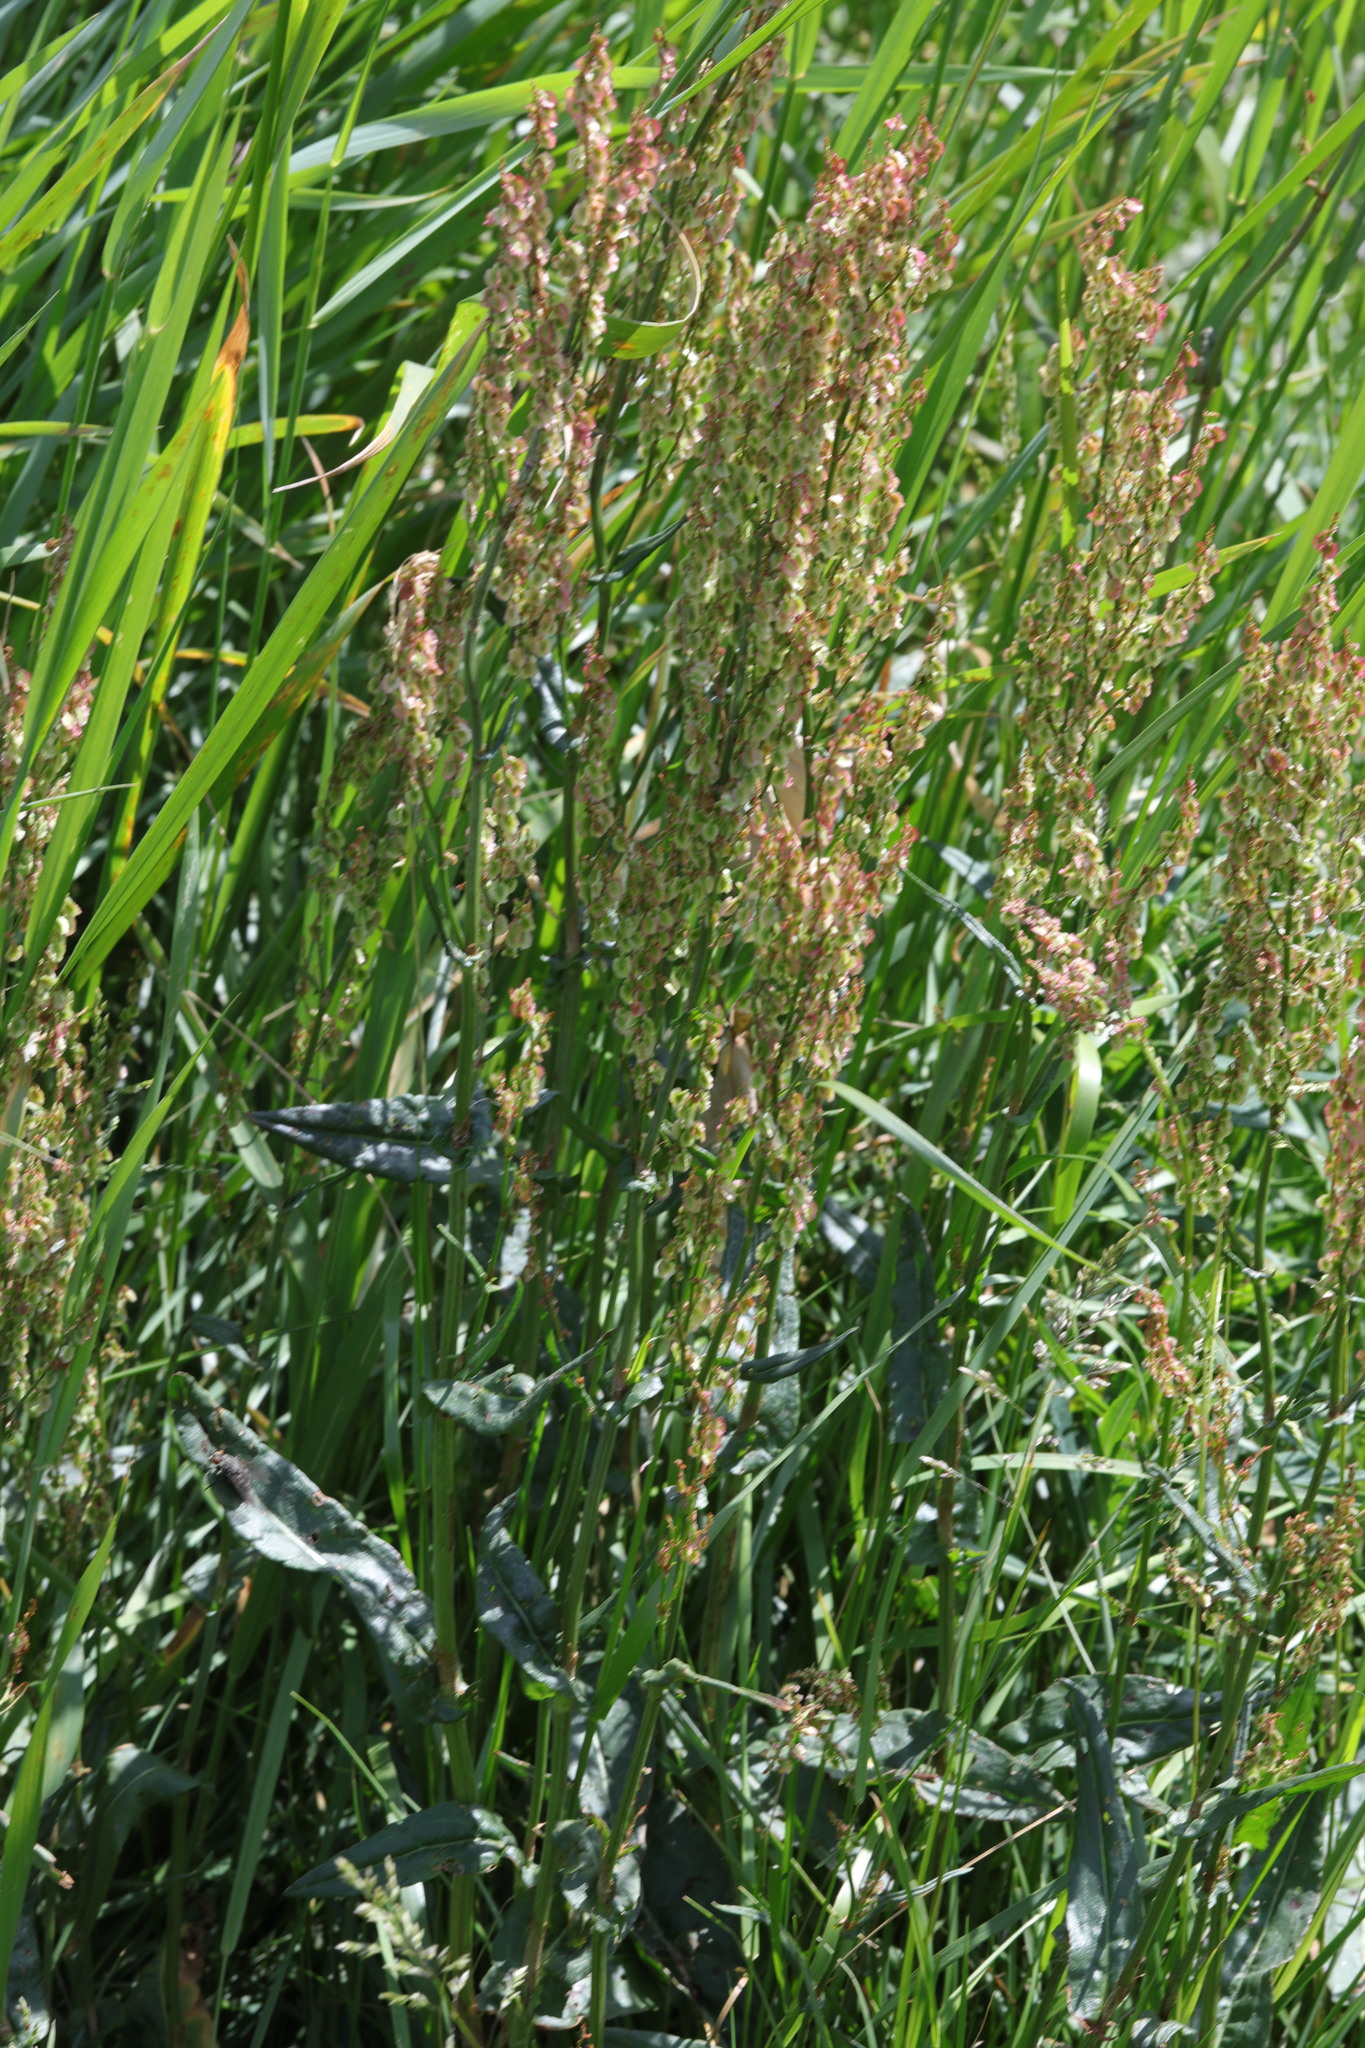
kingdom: Plantae
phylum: Tracheophyta
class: Magnoliopsida
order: Caryophyllales
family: Polygonaceae
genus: Rumex
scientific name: Rumex acetosa
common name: Garden sorrel
